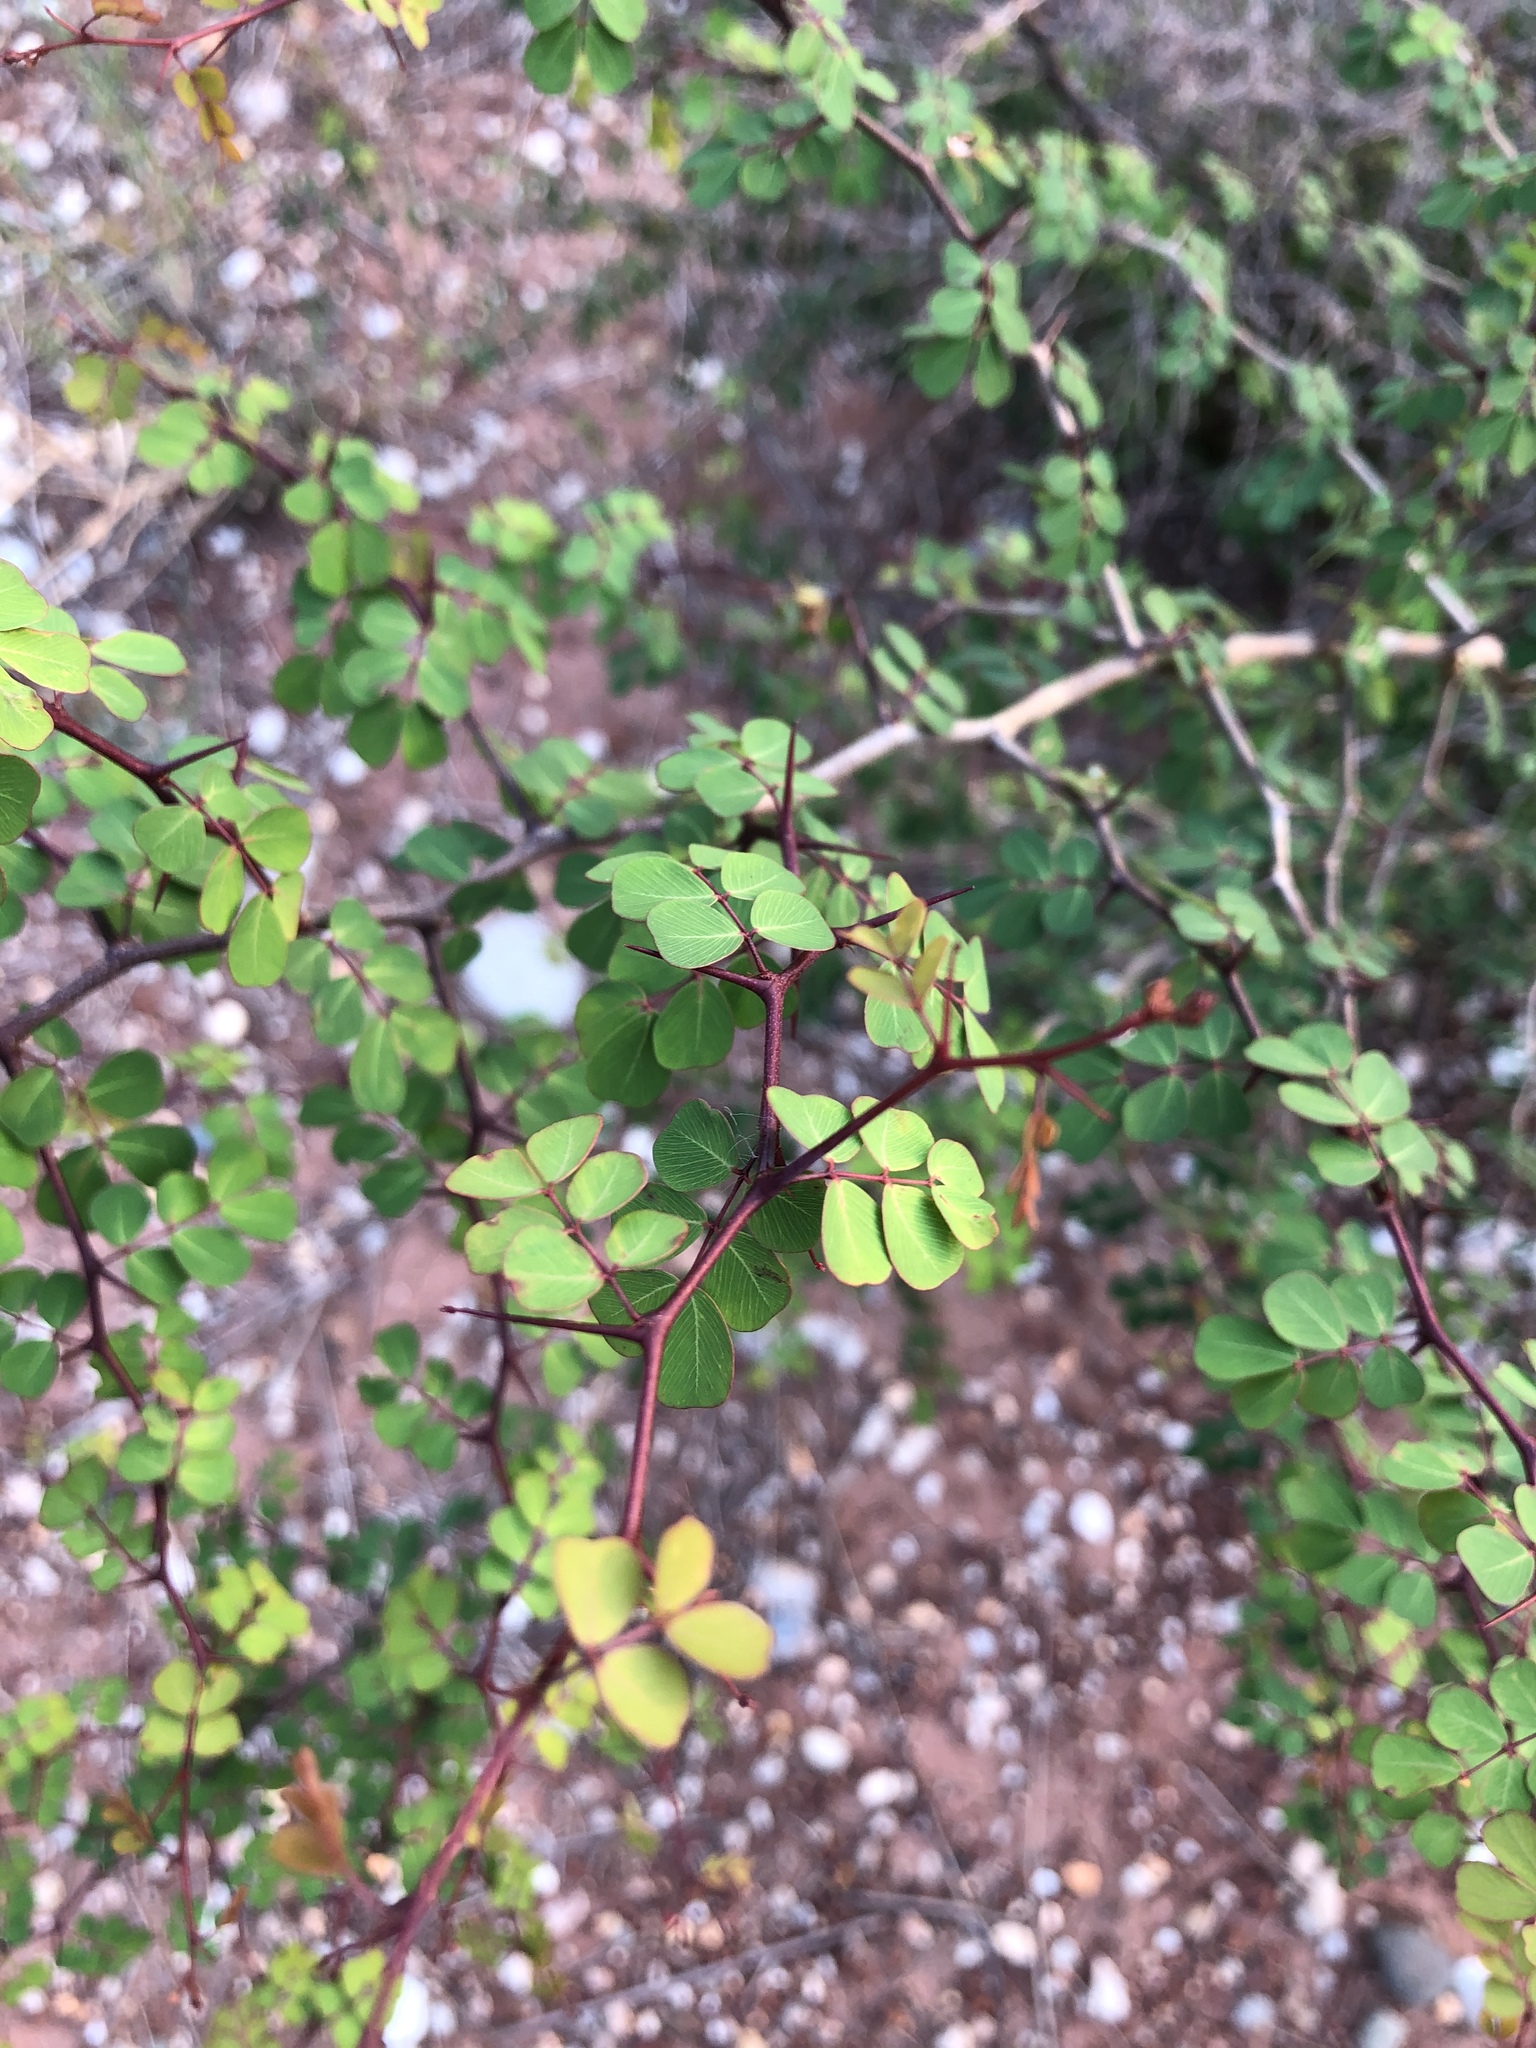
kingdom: Plantae
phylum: Tracheophyta
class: Magnoliopsida
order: Fabales
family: Fabaceae
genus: Haematoxylum
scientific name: Haematoxylum campechianum
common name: Logwood
